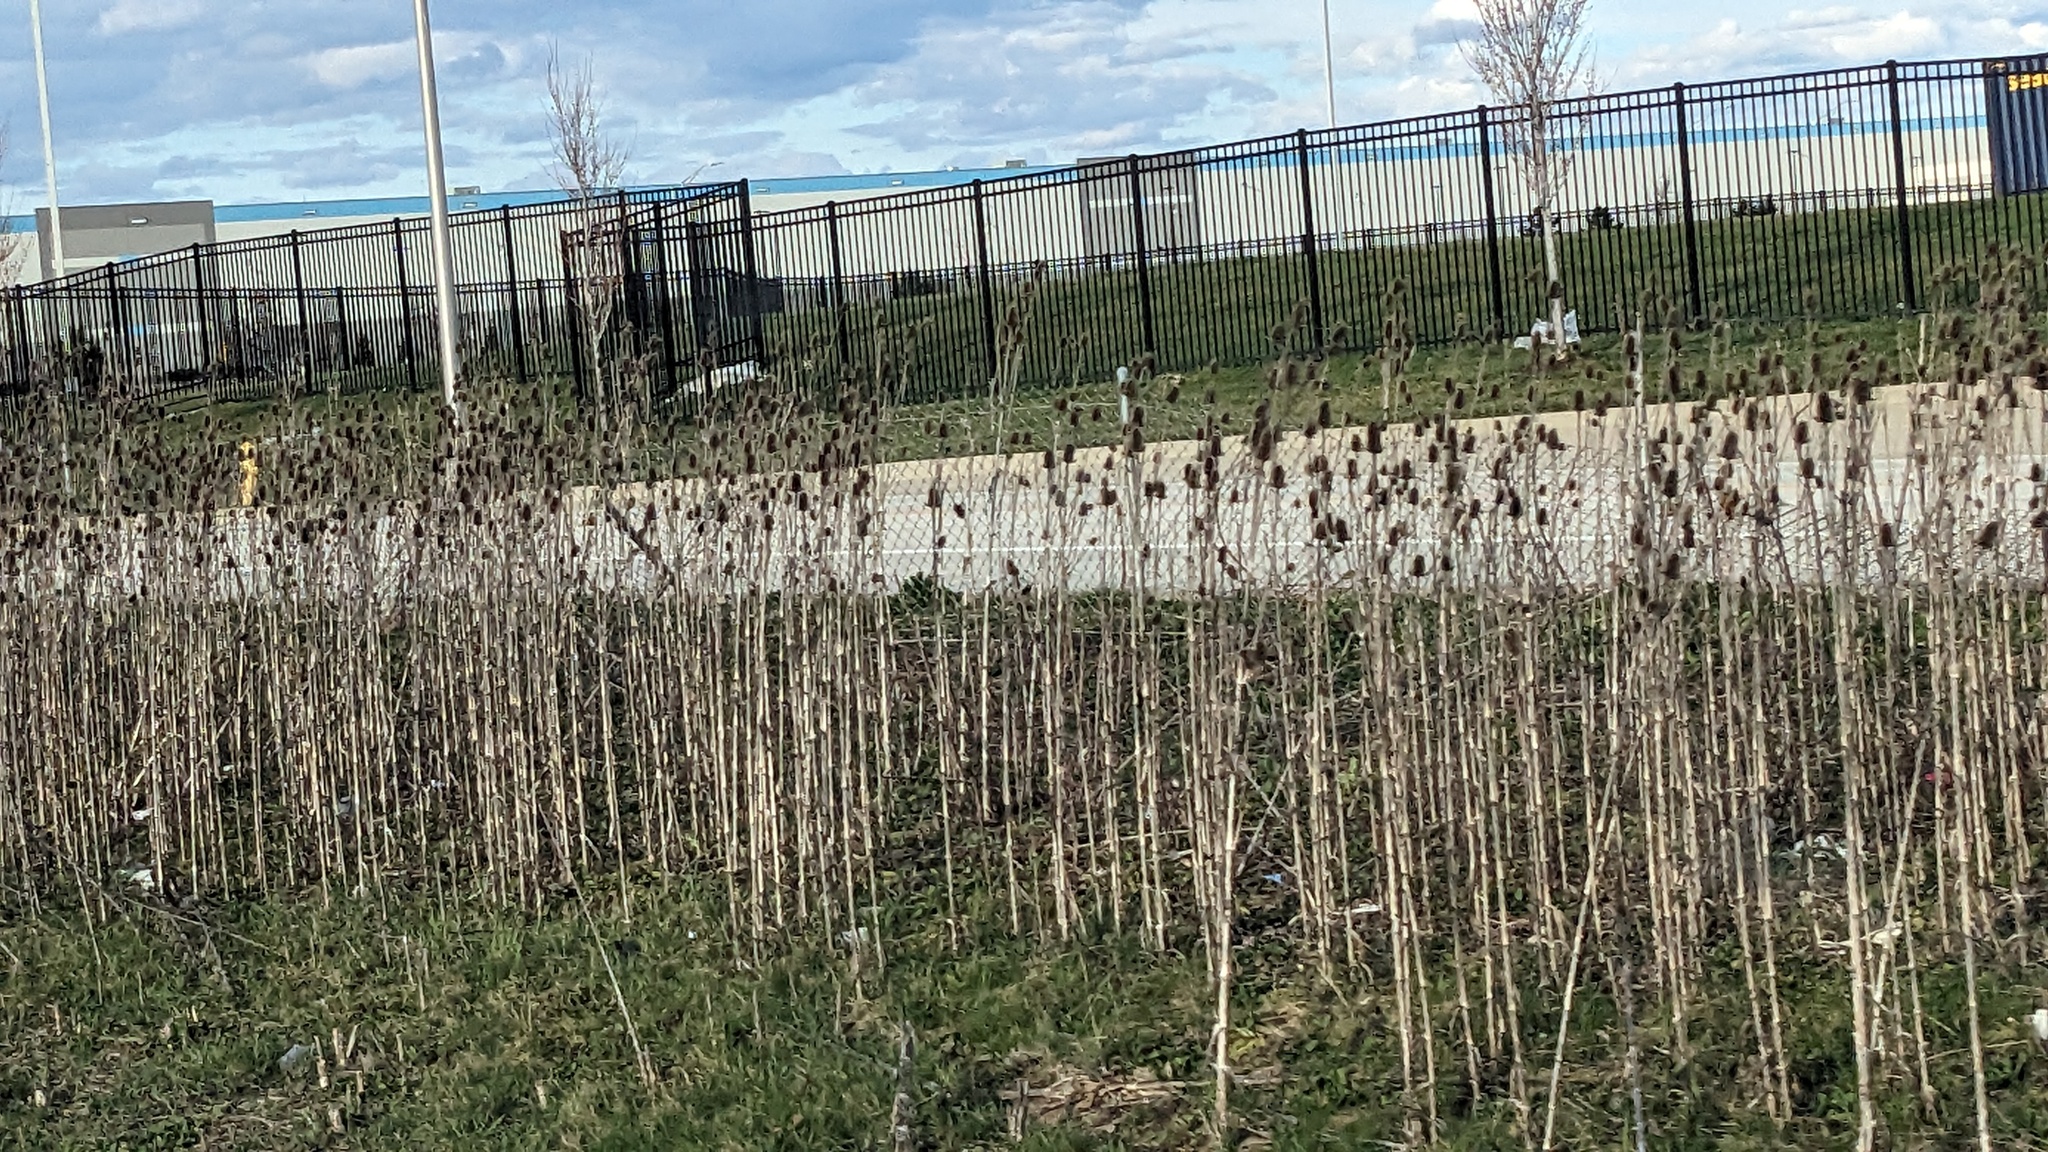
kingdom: Plantae
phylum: Tracheophyta
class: Magnoliopsida
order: Dipsacales
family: Caprifoliaceae
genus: Dipsacus
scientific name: Dipsacus laciniatus
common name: Cut-leaved teasel
